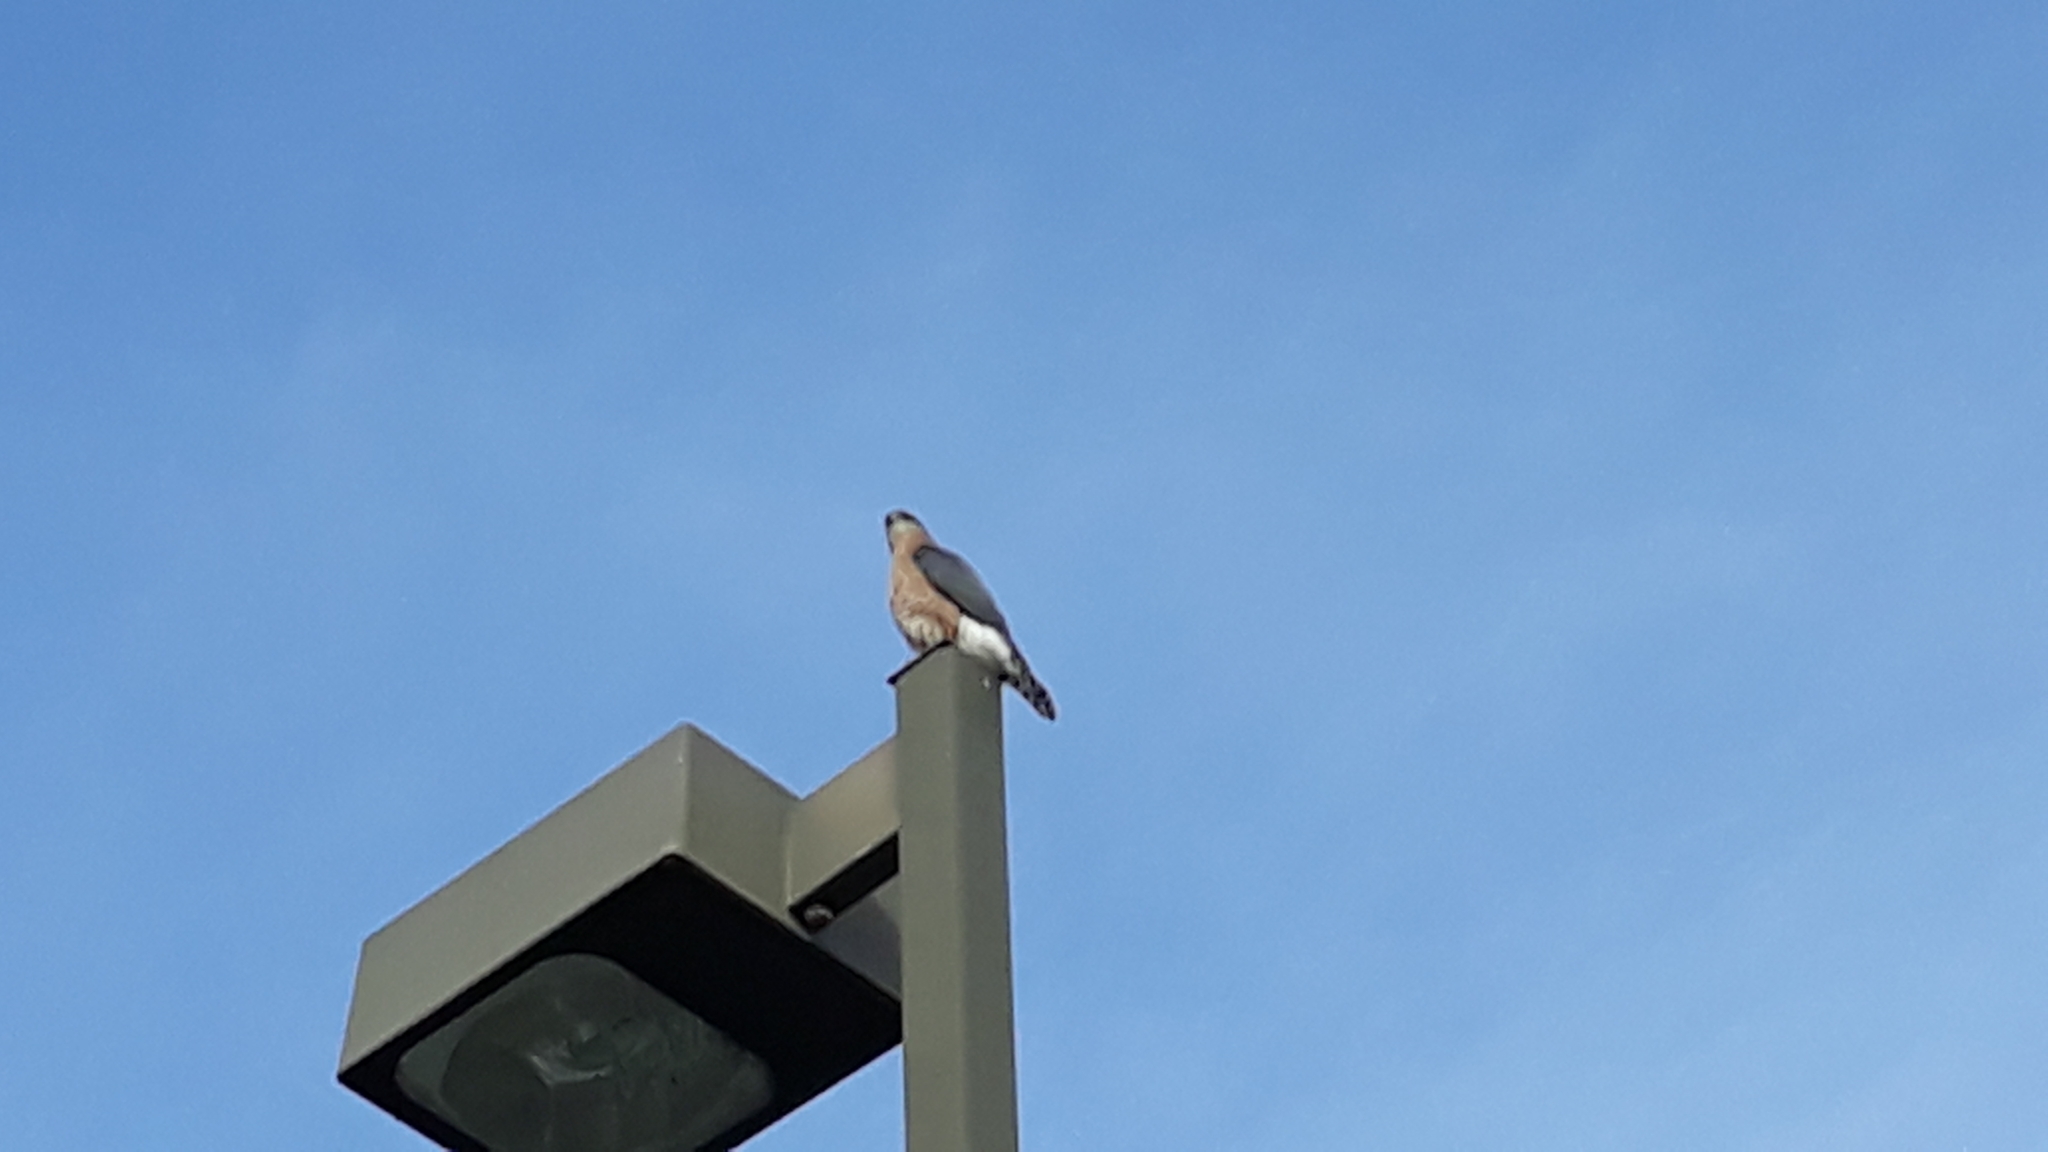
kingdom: Animalia
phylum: Chordata
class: Aves
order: Accipitriformes
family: Accipitridae
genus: Accipiter
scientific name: Accipiter cooperii
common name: Cooper's hawk
